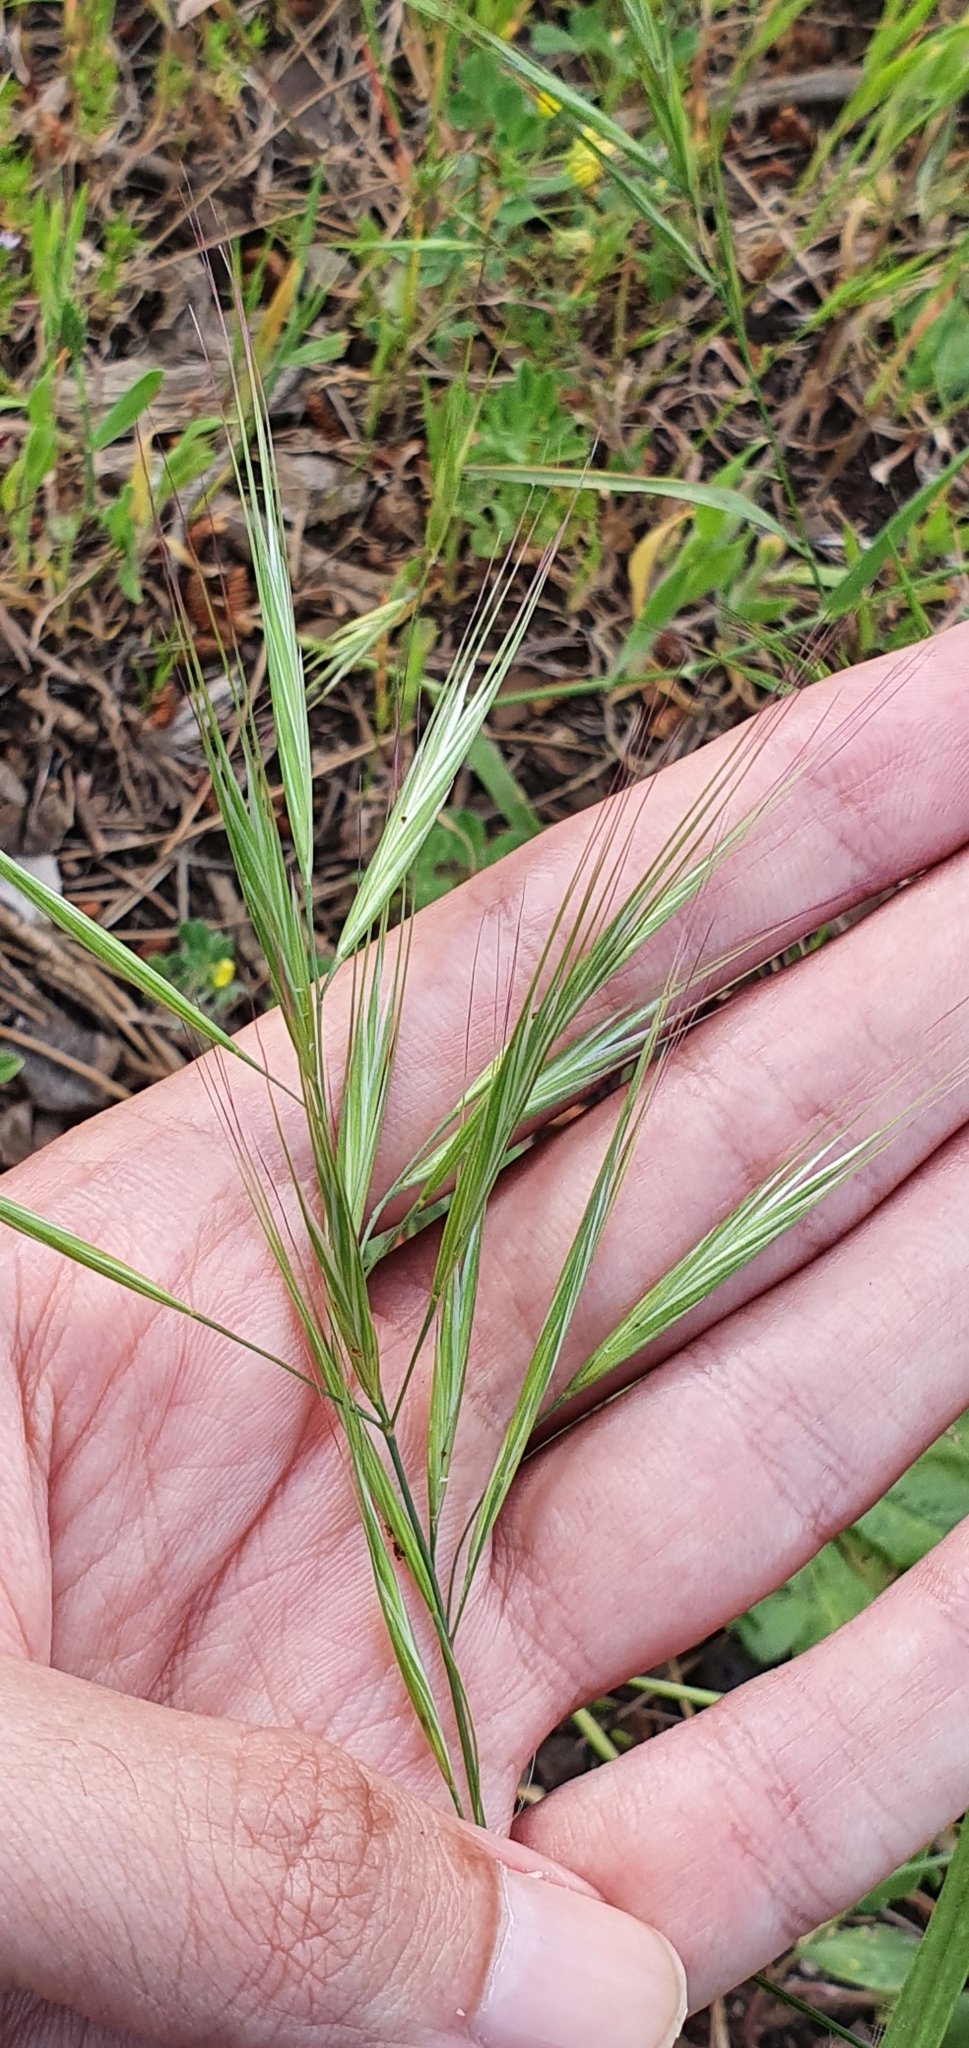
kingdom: Plantae
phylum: Tracheophyta
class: Liliopsida
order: Poales
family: Poaceae
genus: Bromus
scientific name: Bromus madritensis
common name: Compact brome
